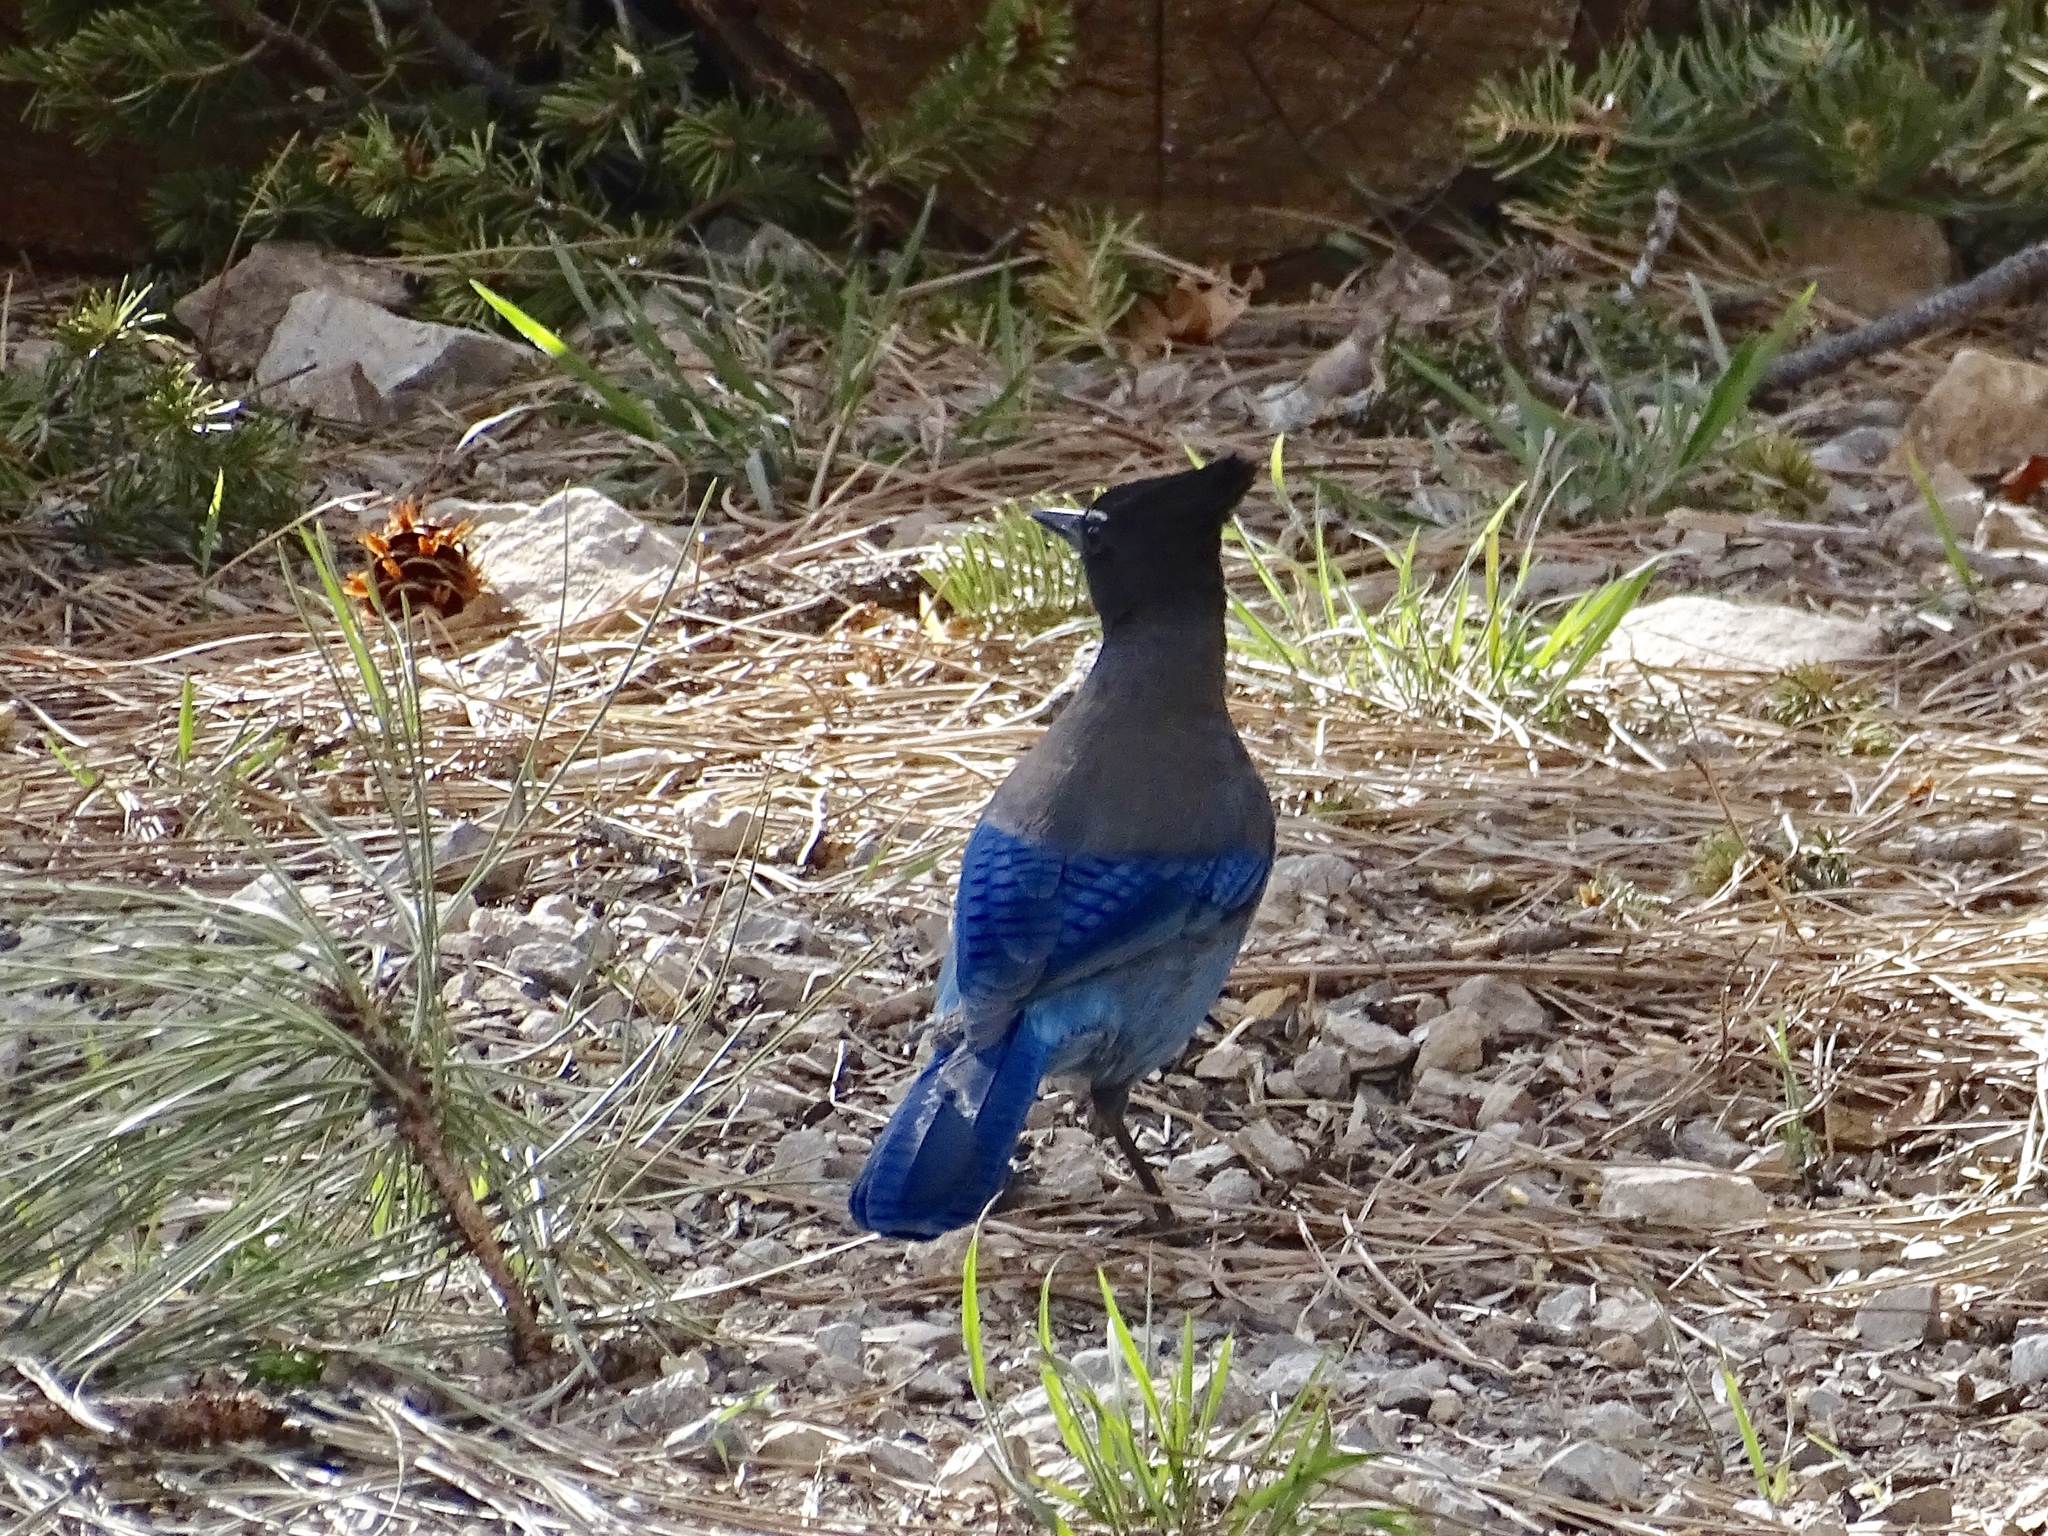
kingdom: Animalia
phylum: Chordata
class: Aves
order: Passeriformes
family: Corvidae
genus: Cyanocitta
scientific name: Cyanocitta stelleri
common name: Steller's jay
